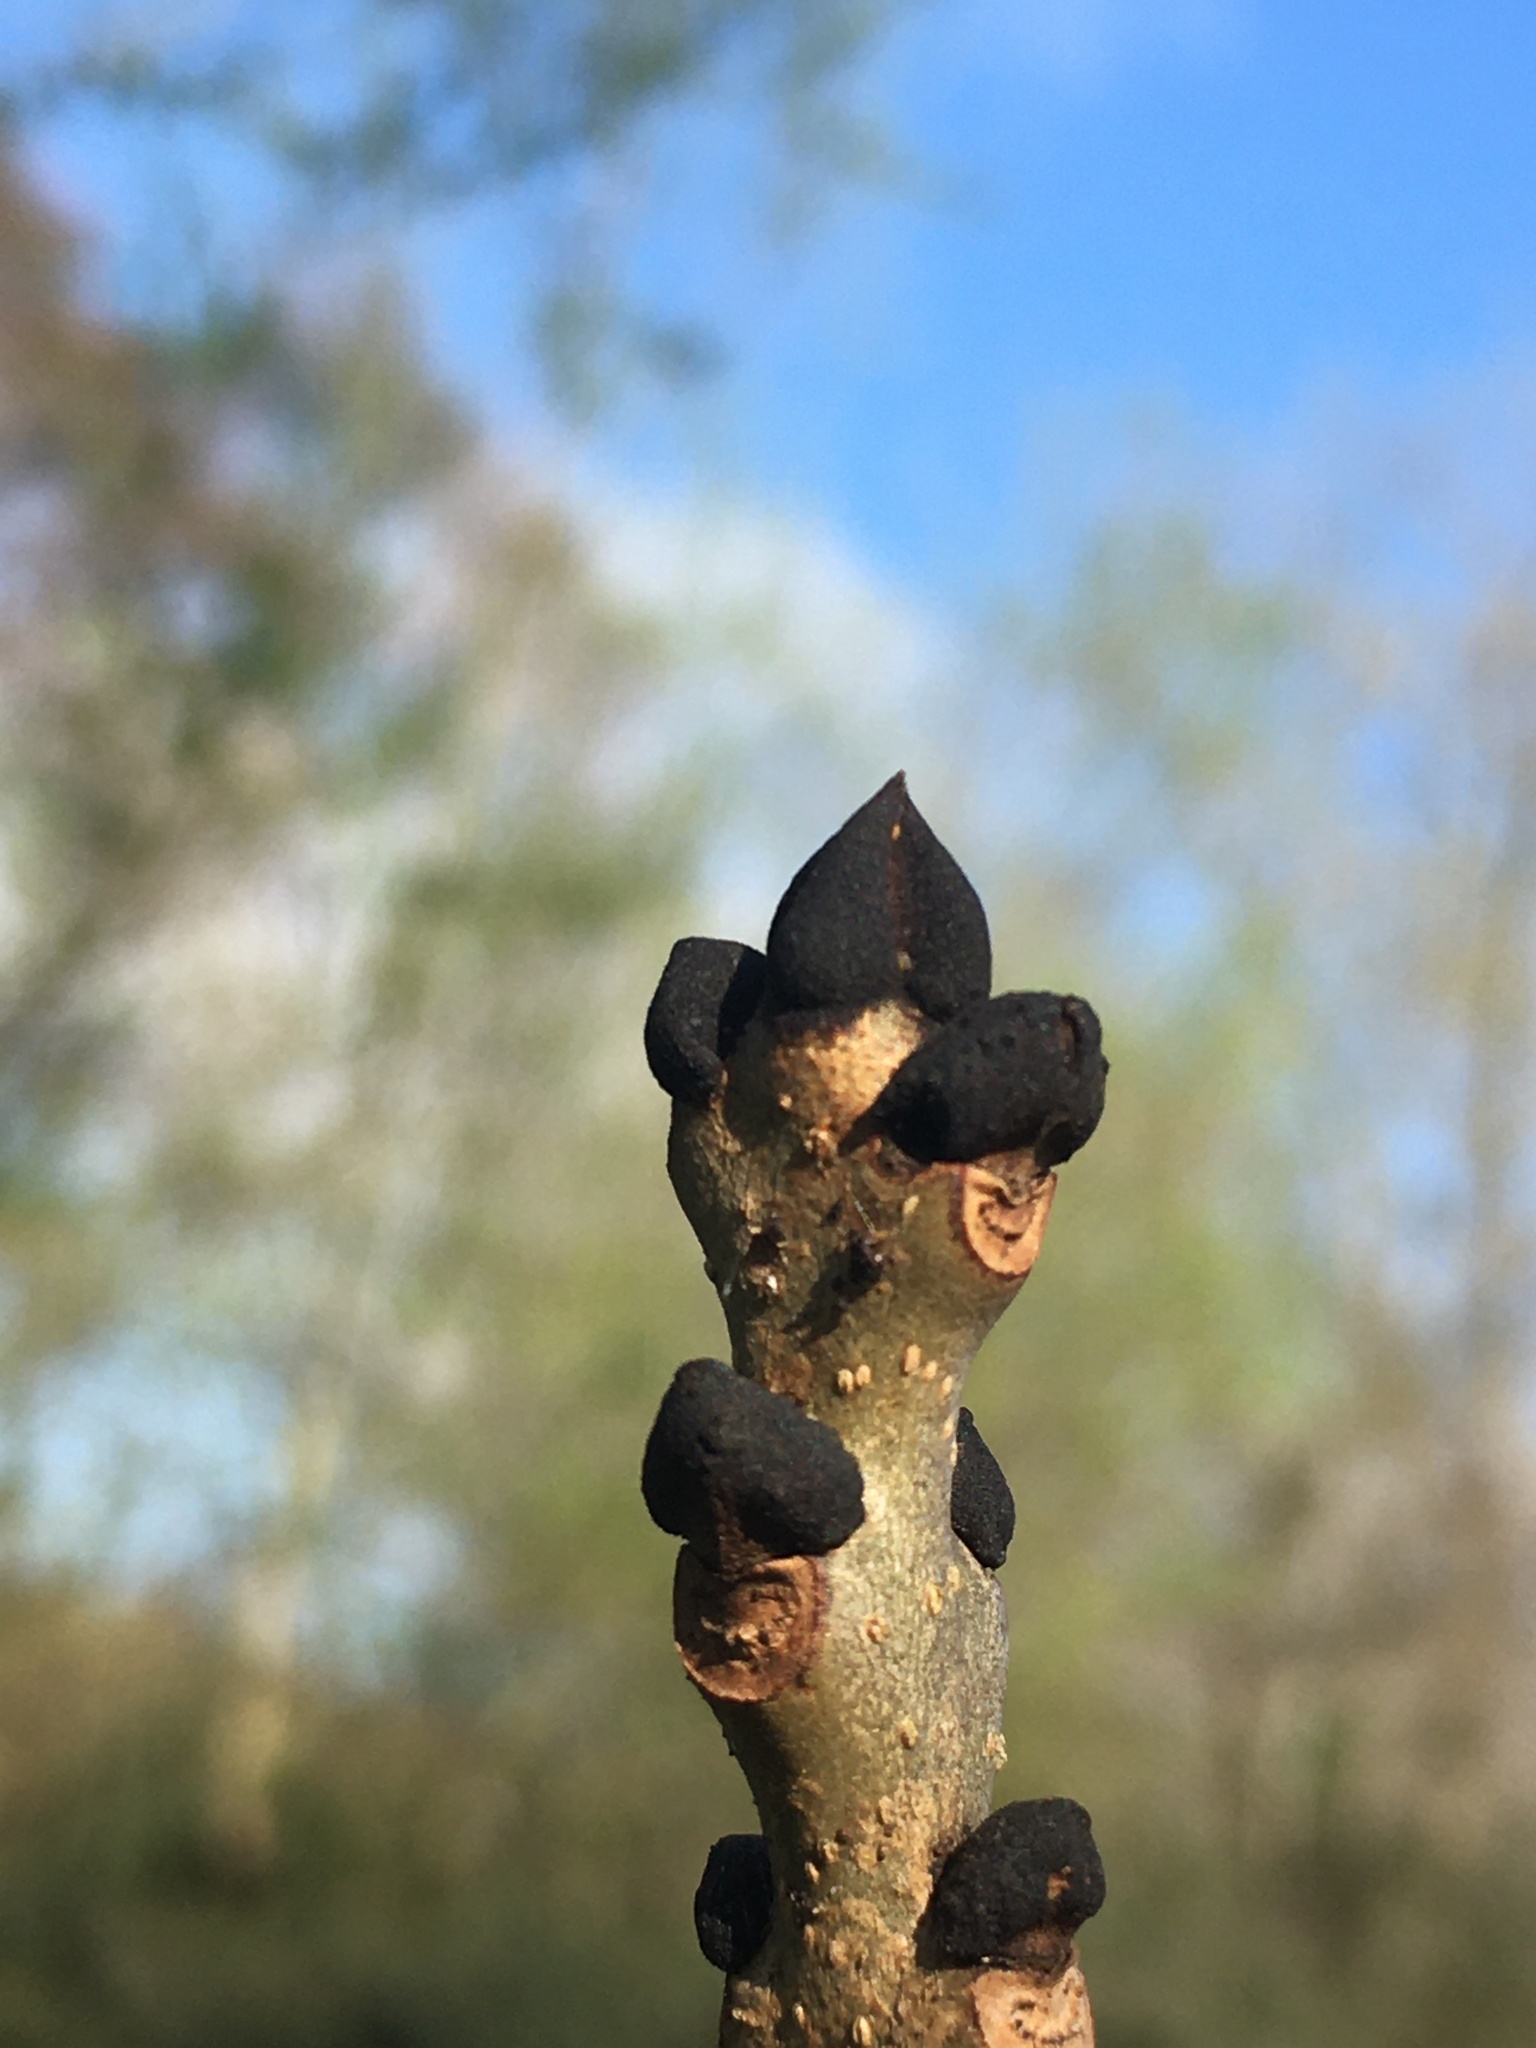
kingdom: Plantae
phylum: Tracheophyta
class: Magnoliopsida
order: Lamiales
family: Oleaceae
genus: Fraxinus
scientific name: Fraxinus excelsior
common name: European ash
